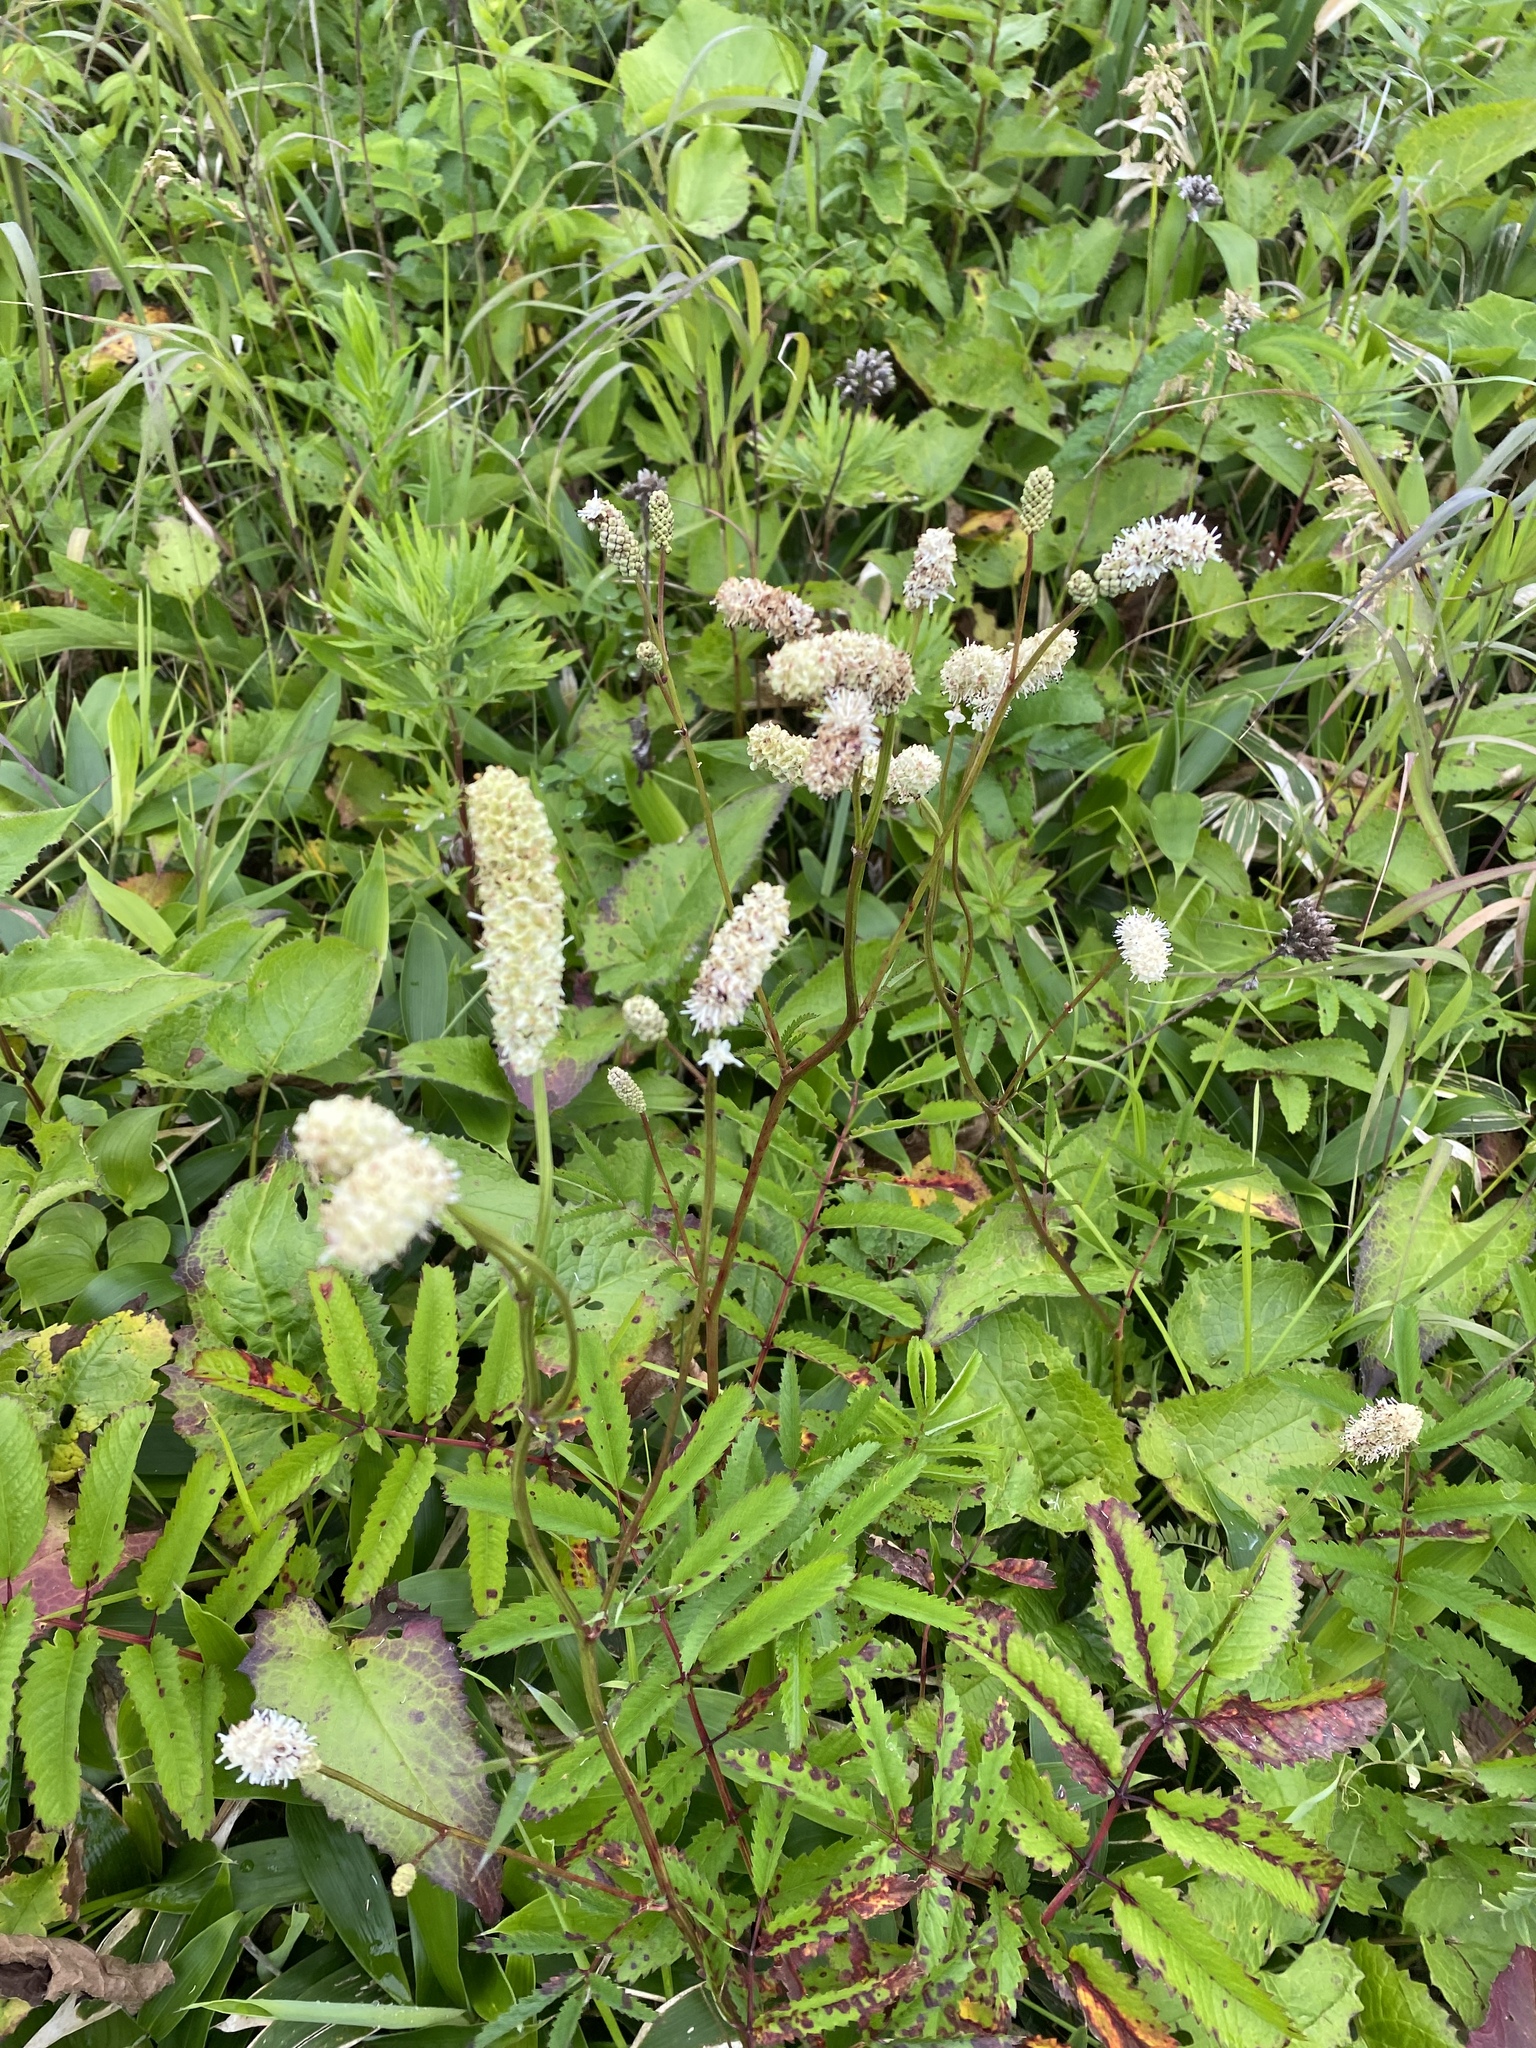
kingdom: Plantae
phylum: Tracheophyta
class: Magnoliopsida
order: Rosales
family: Rosaceae
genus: Poterium
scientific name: Poterium tenuifolium
